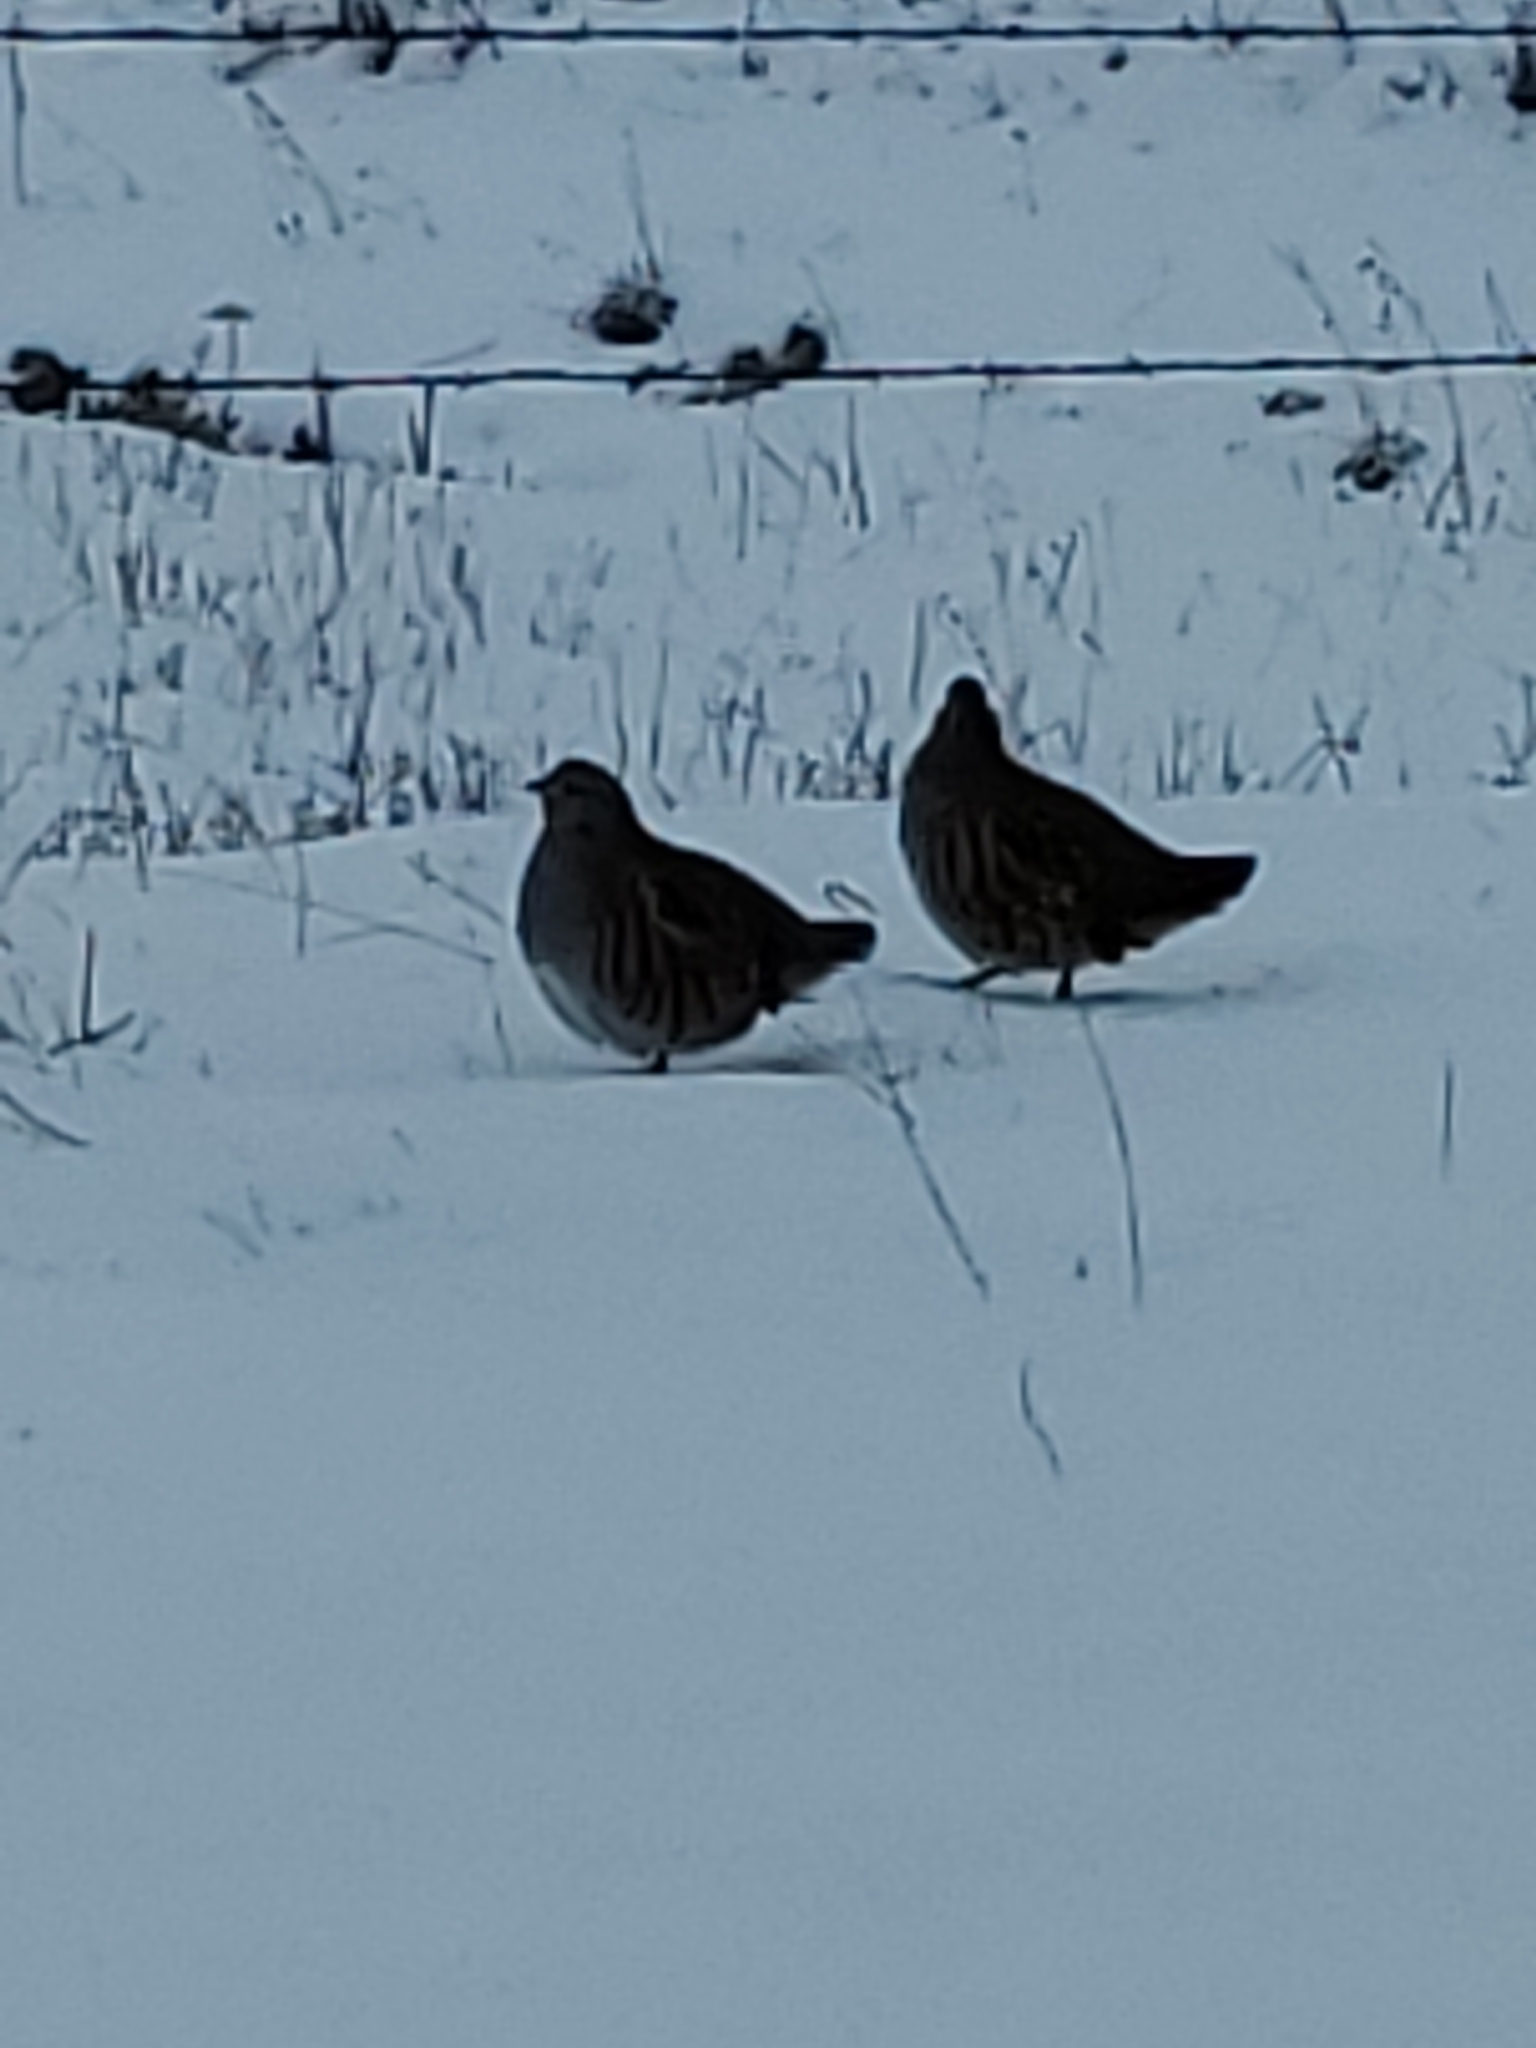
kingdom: Animalia
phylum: Chordata
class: Aves
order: Galliformes
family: Phasianidae
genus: Perdix
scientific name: Perdix perdix
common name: Grey partridge
